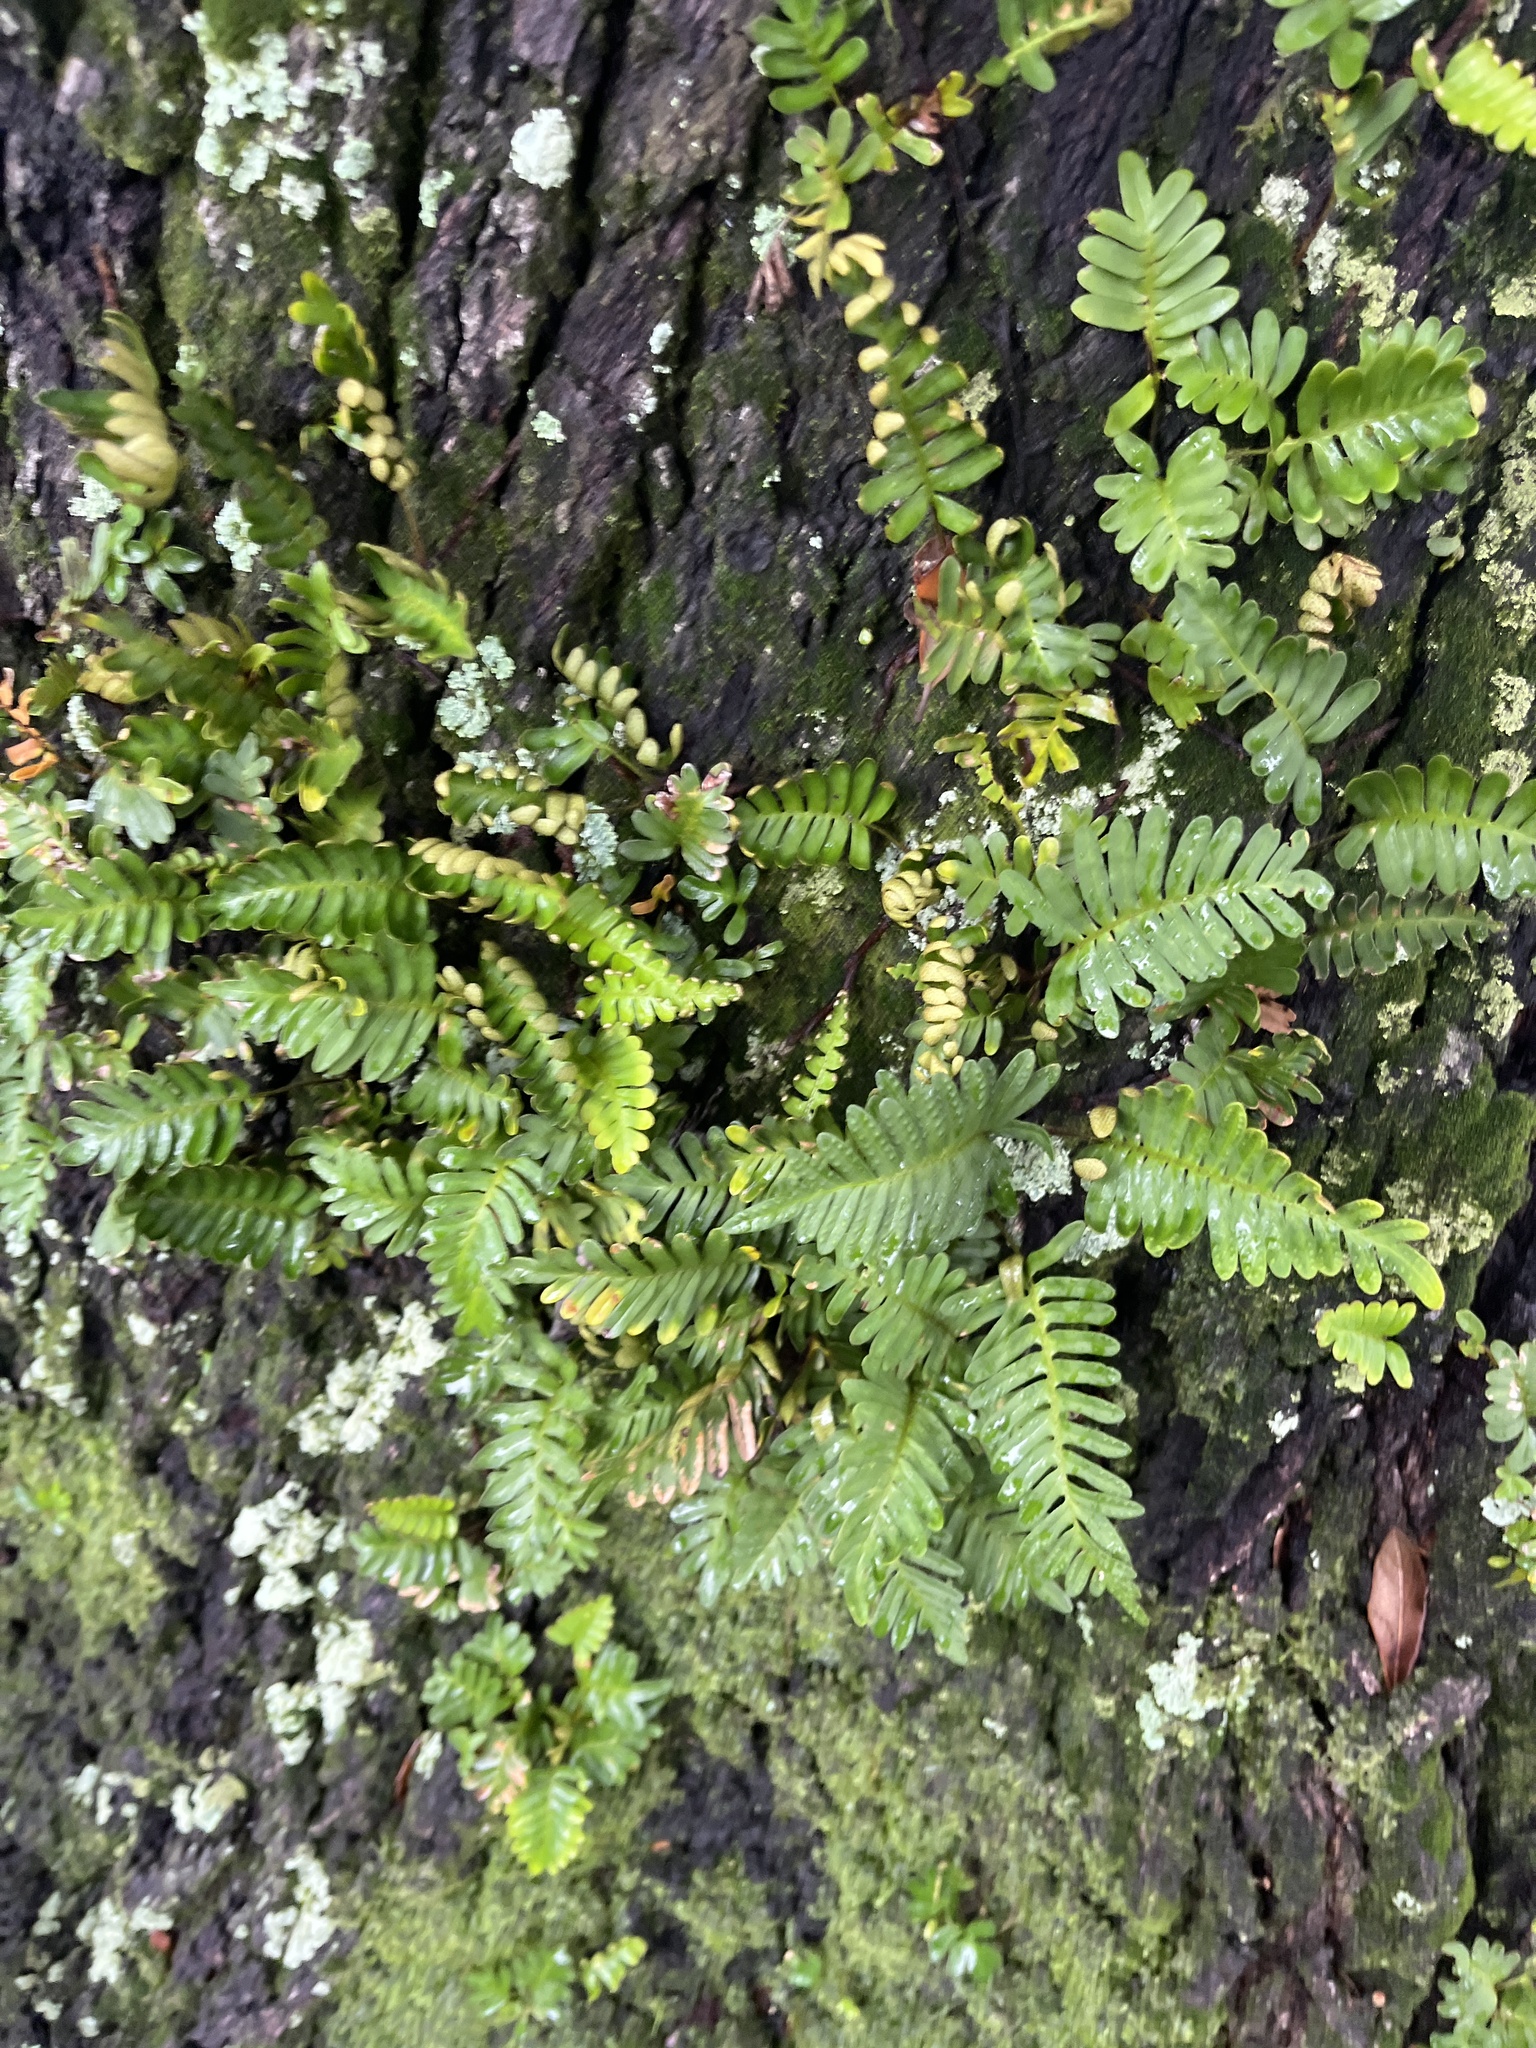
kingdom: Plantae
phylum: Tracheophyta
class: Polypodiopsida
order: Polypodiales
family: Polypodiaceae
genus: Pleopeltis
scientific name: Pleopeltis michauxiana
